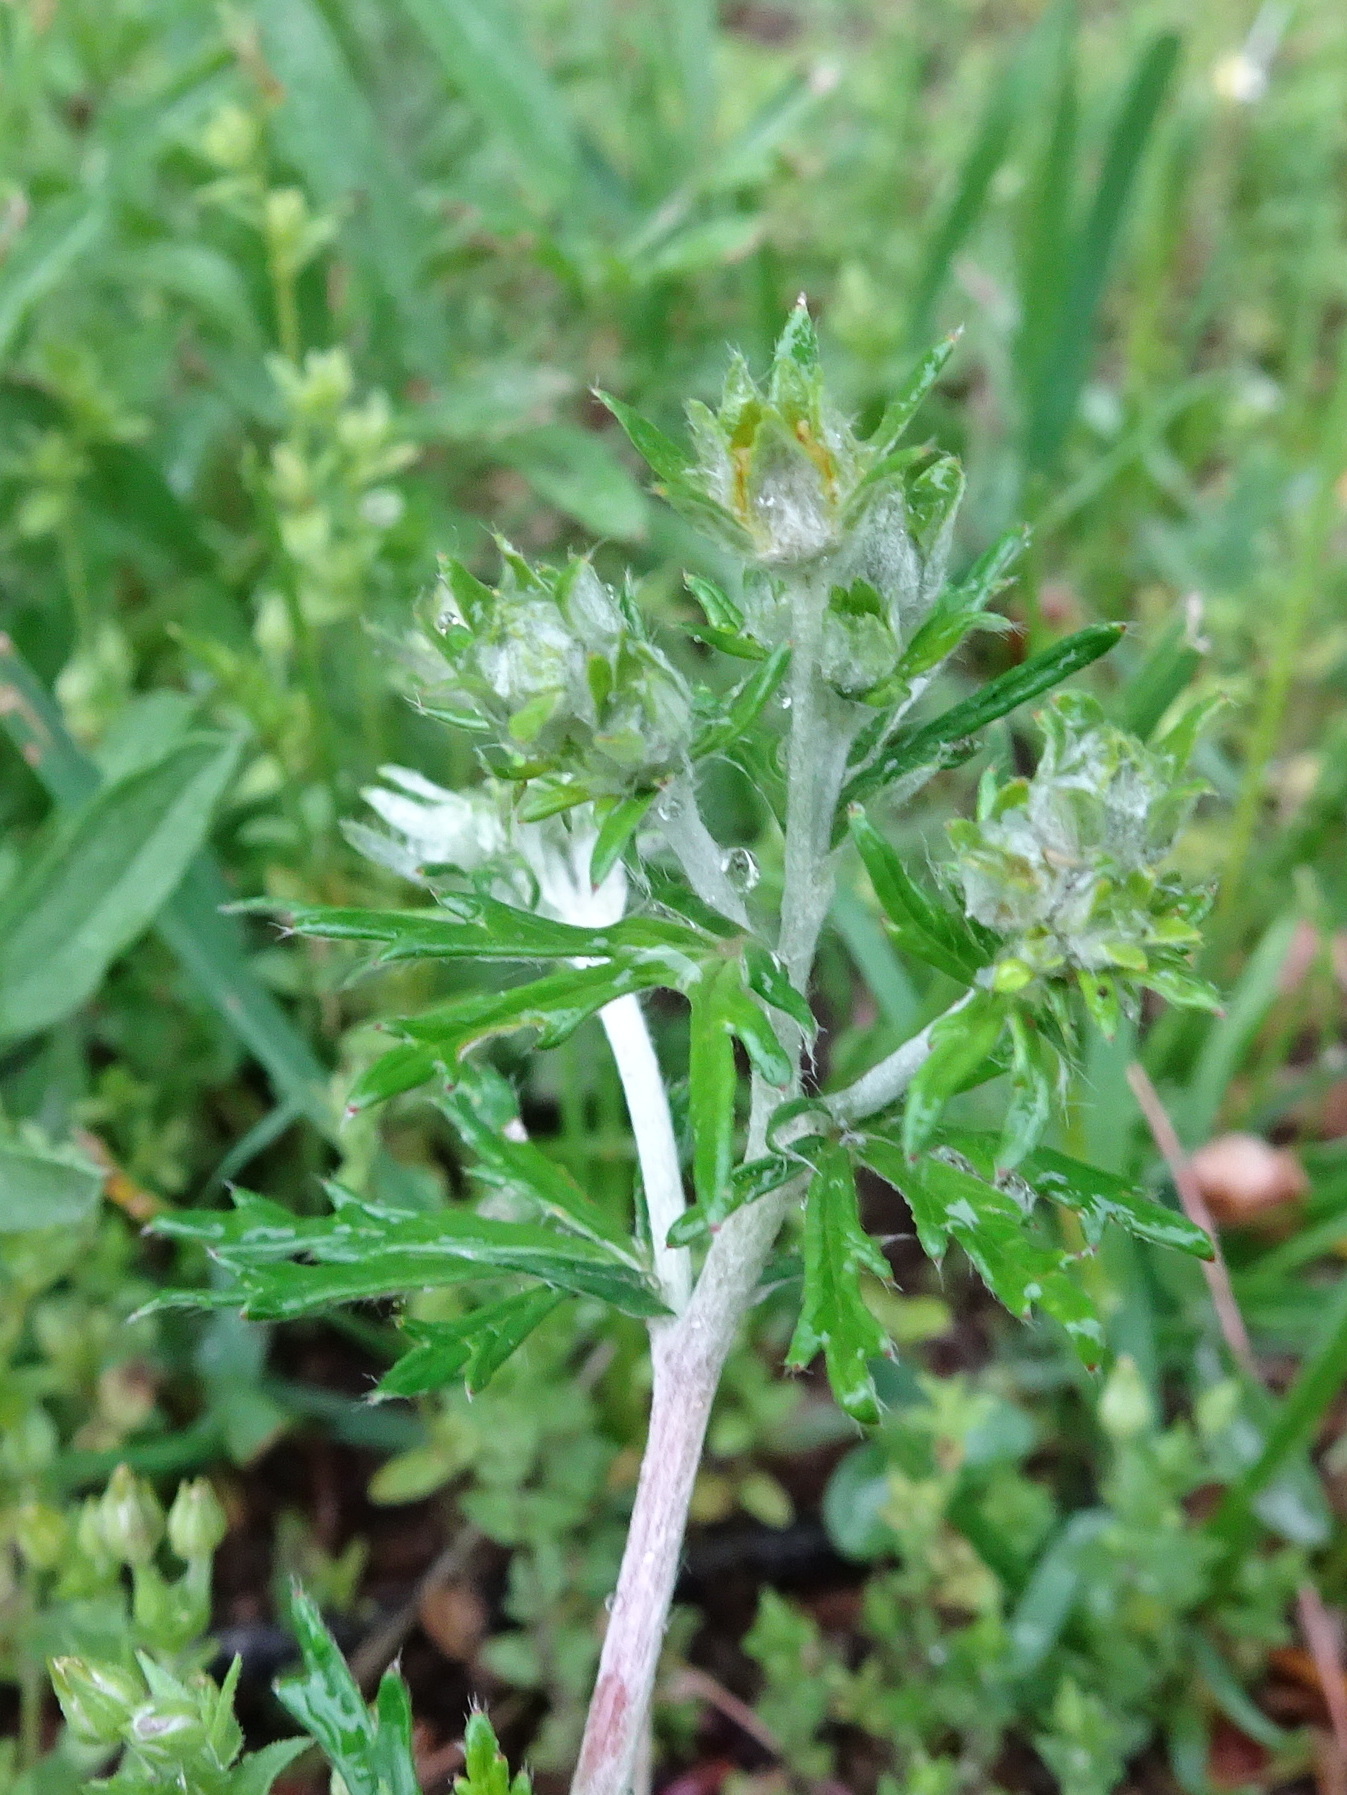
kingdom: Plantae
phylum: Tracheophyta
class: Magnoliopsida
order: Rosales
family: Rosaceae
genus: Potentilla
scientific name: Potentilla argentea
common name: Hoary cinquefoil
